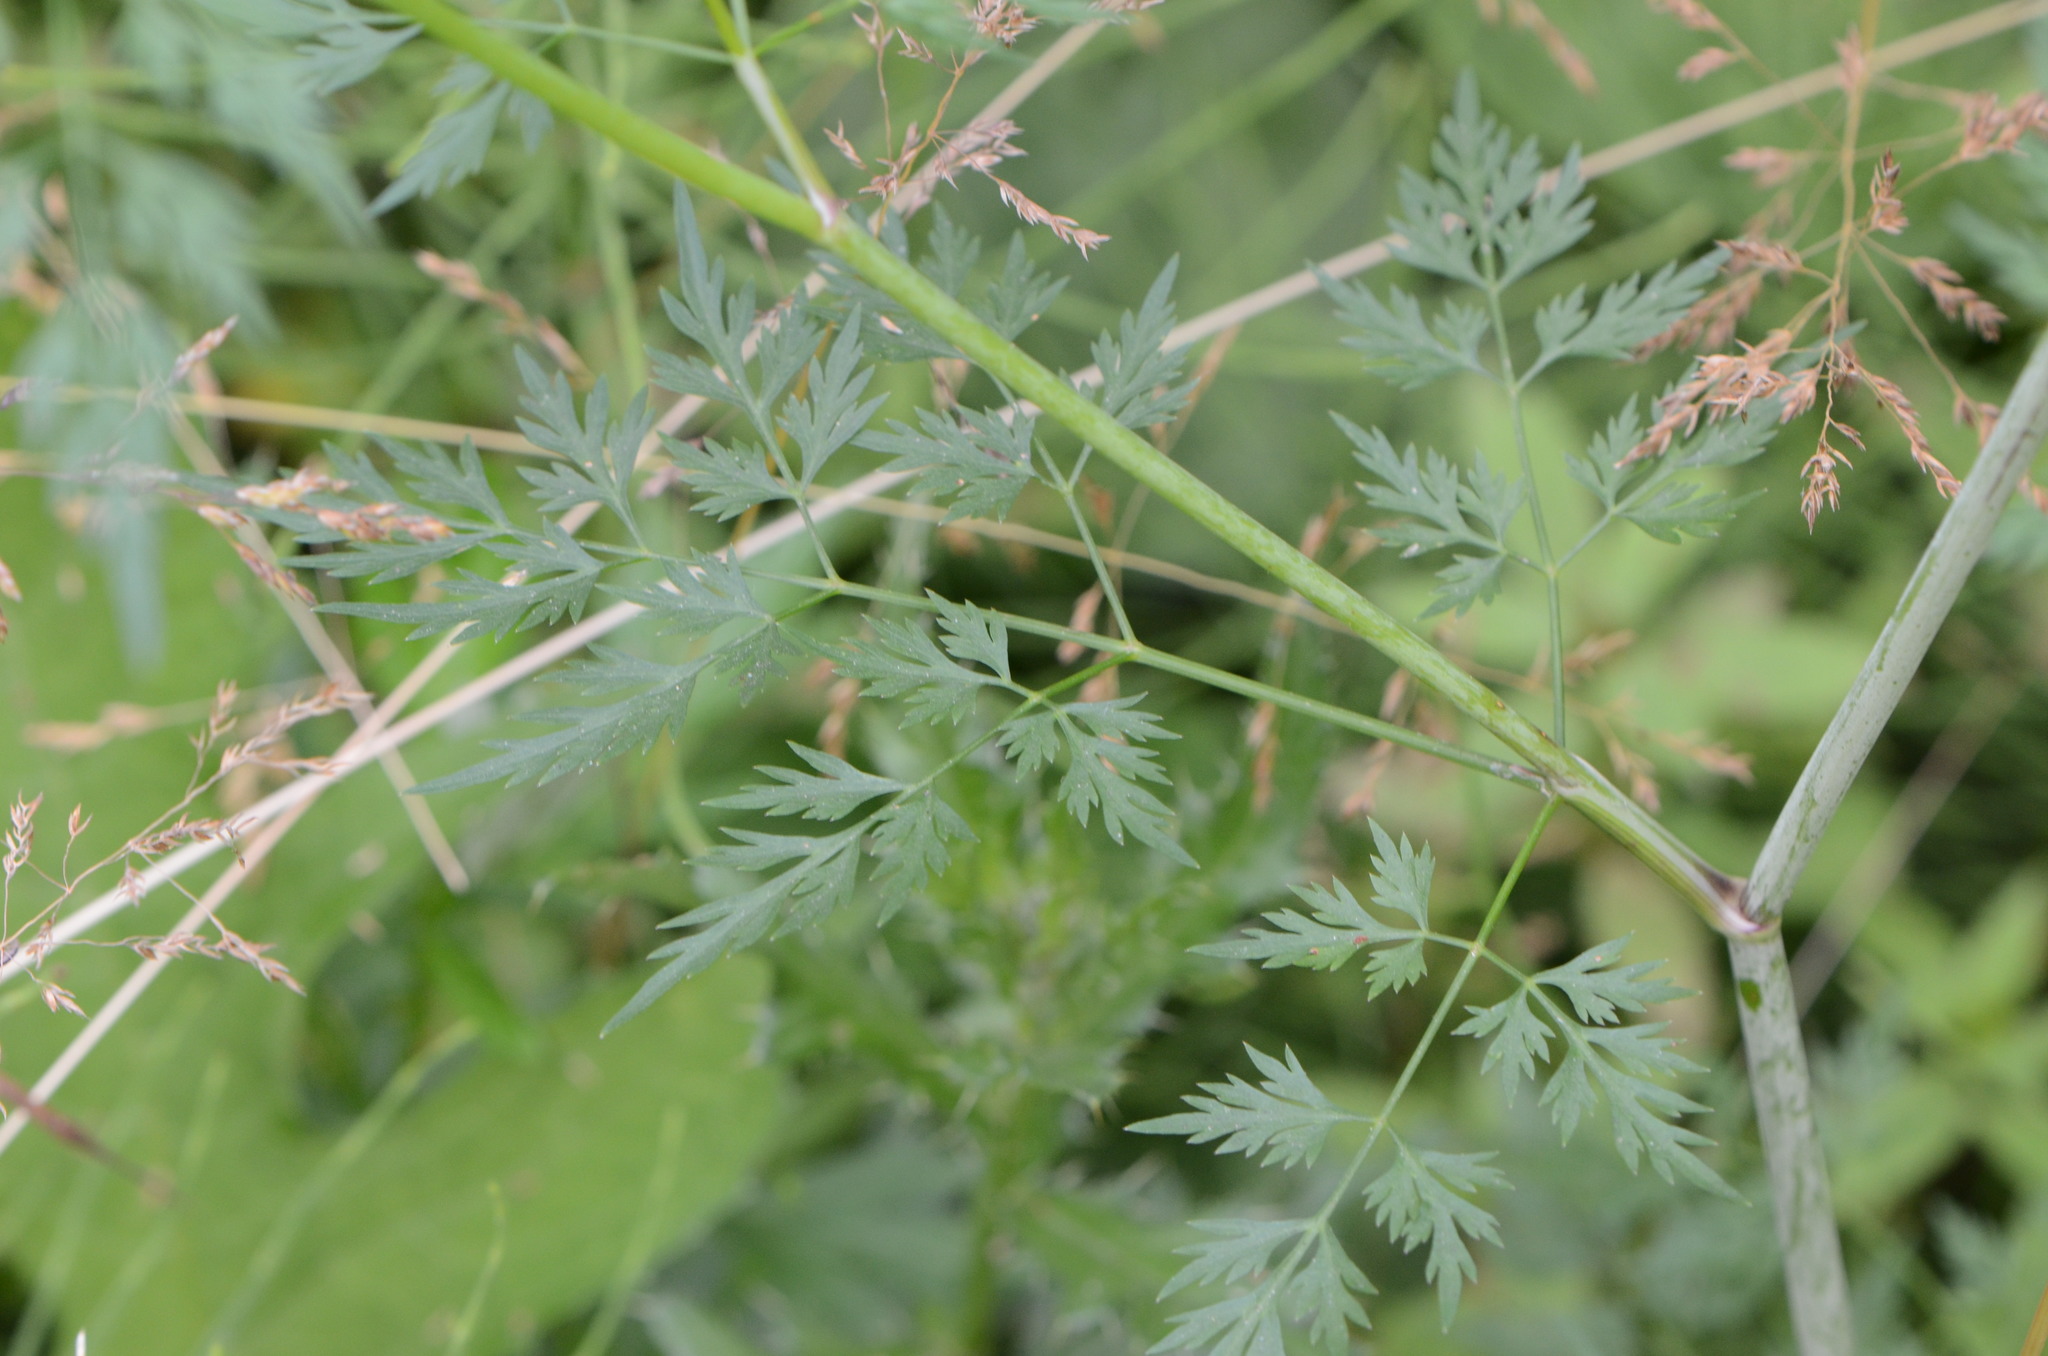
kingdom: Plantae
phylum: Tracheophyta
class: Magnoliopsida
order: Apiales
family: Apiaceae
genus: Aethusa
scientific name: Aethusa cynapium
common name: Fool's parsley
